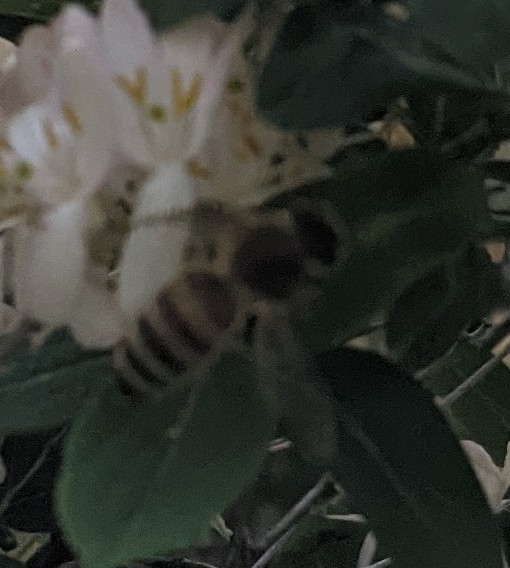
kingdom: Animalia
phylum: Arthropoda
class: Insecta
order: Hymenoptera
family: Apidae
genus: Apis
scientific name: Apis mellifera
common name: Honey bee
